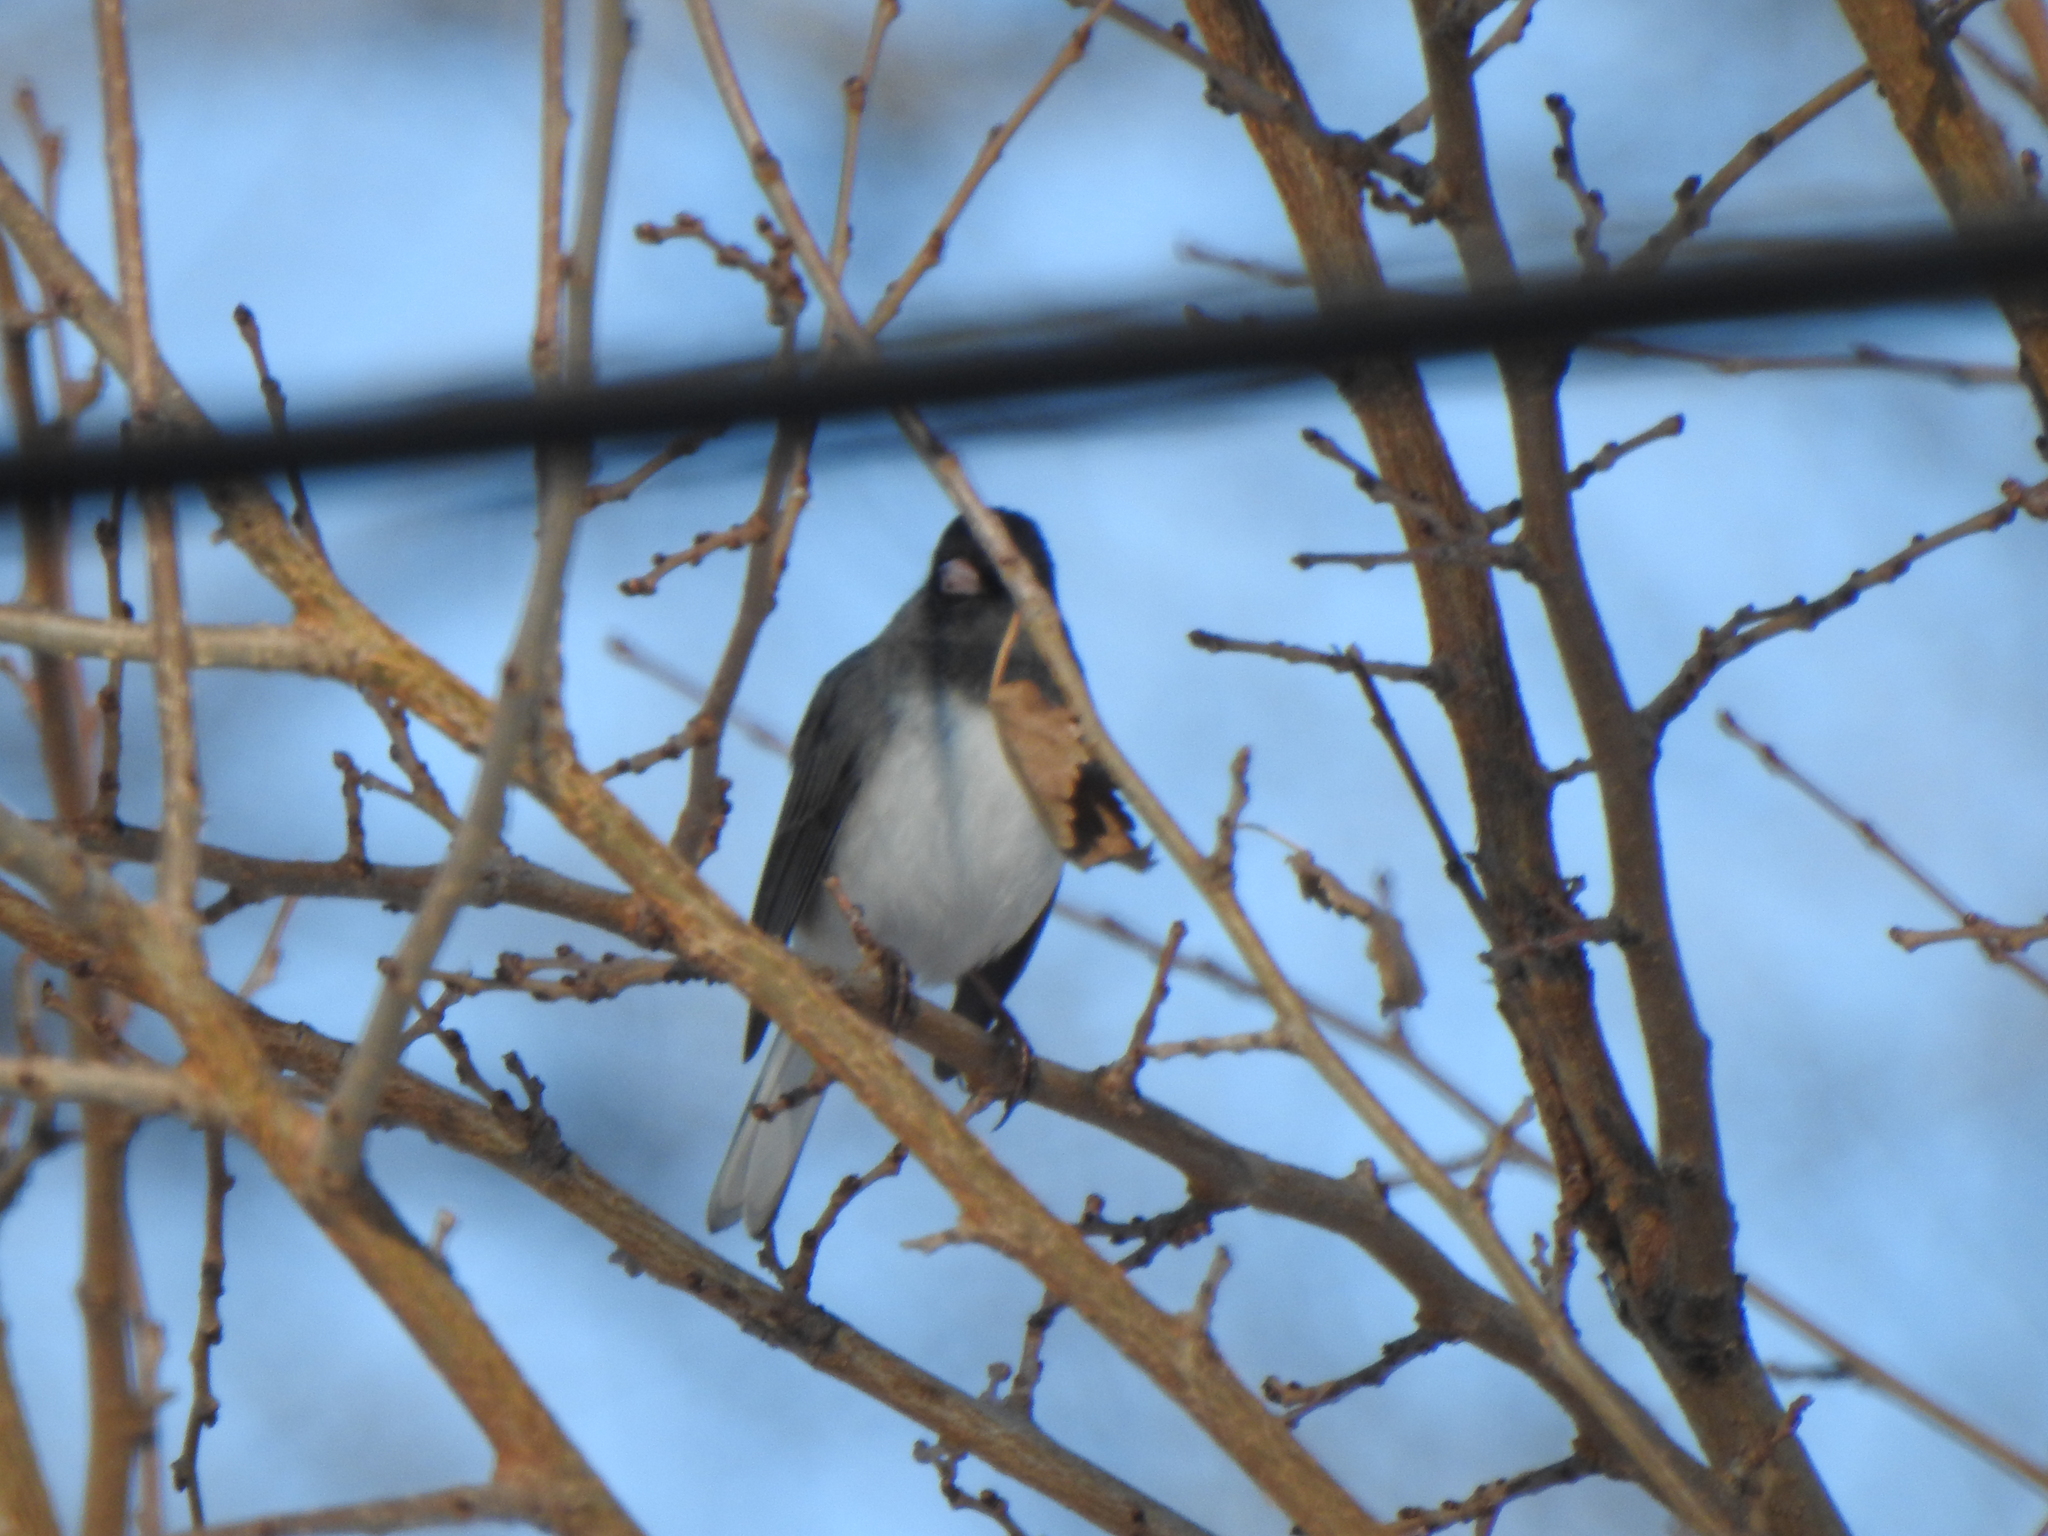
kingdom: Animalia
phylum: Chordata
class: Aves
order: Passeriformes
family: Passerellidae
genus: Junco
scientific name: Junco hyemalis
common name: Dark-eyed junco
